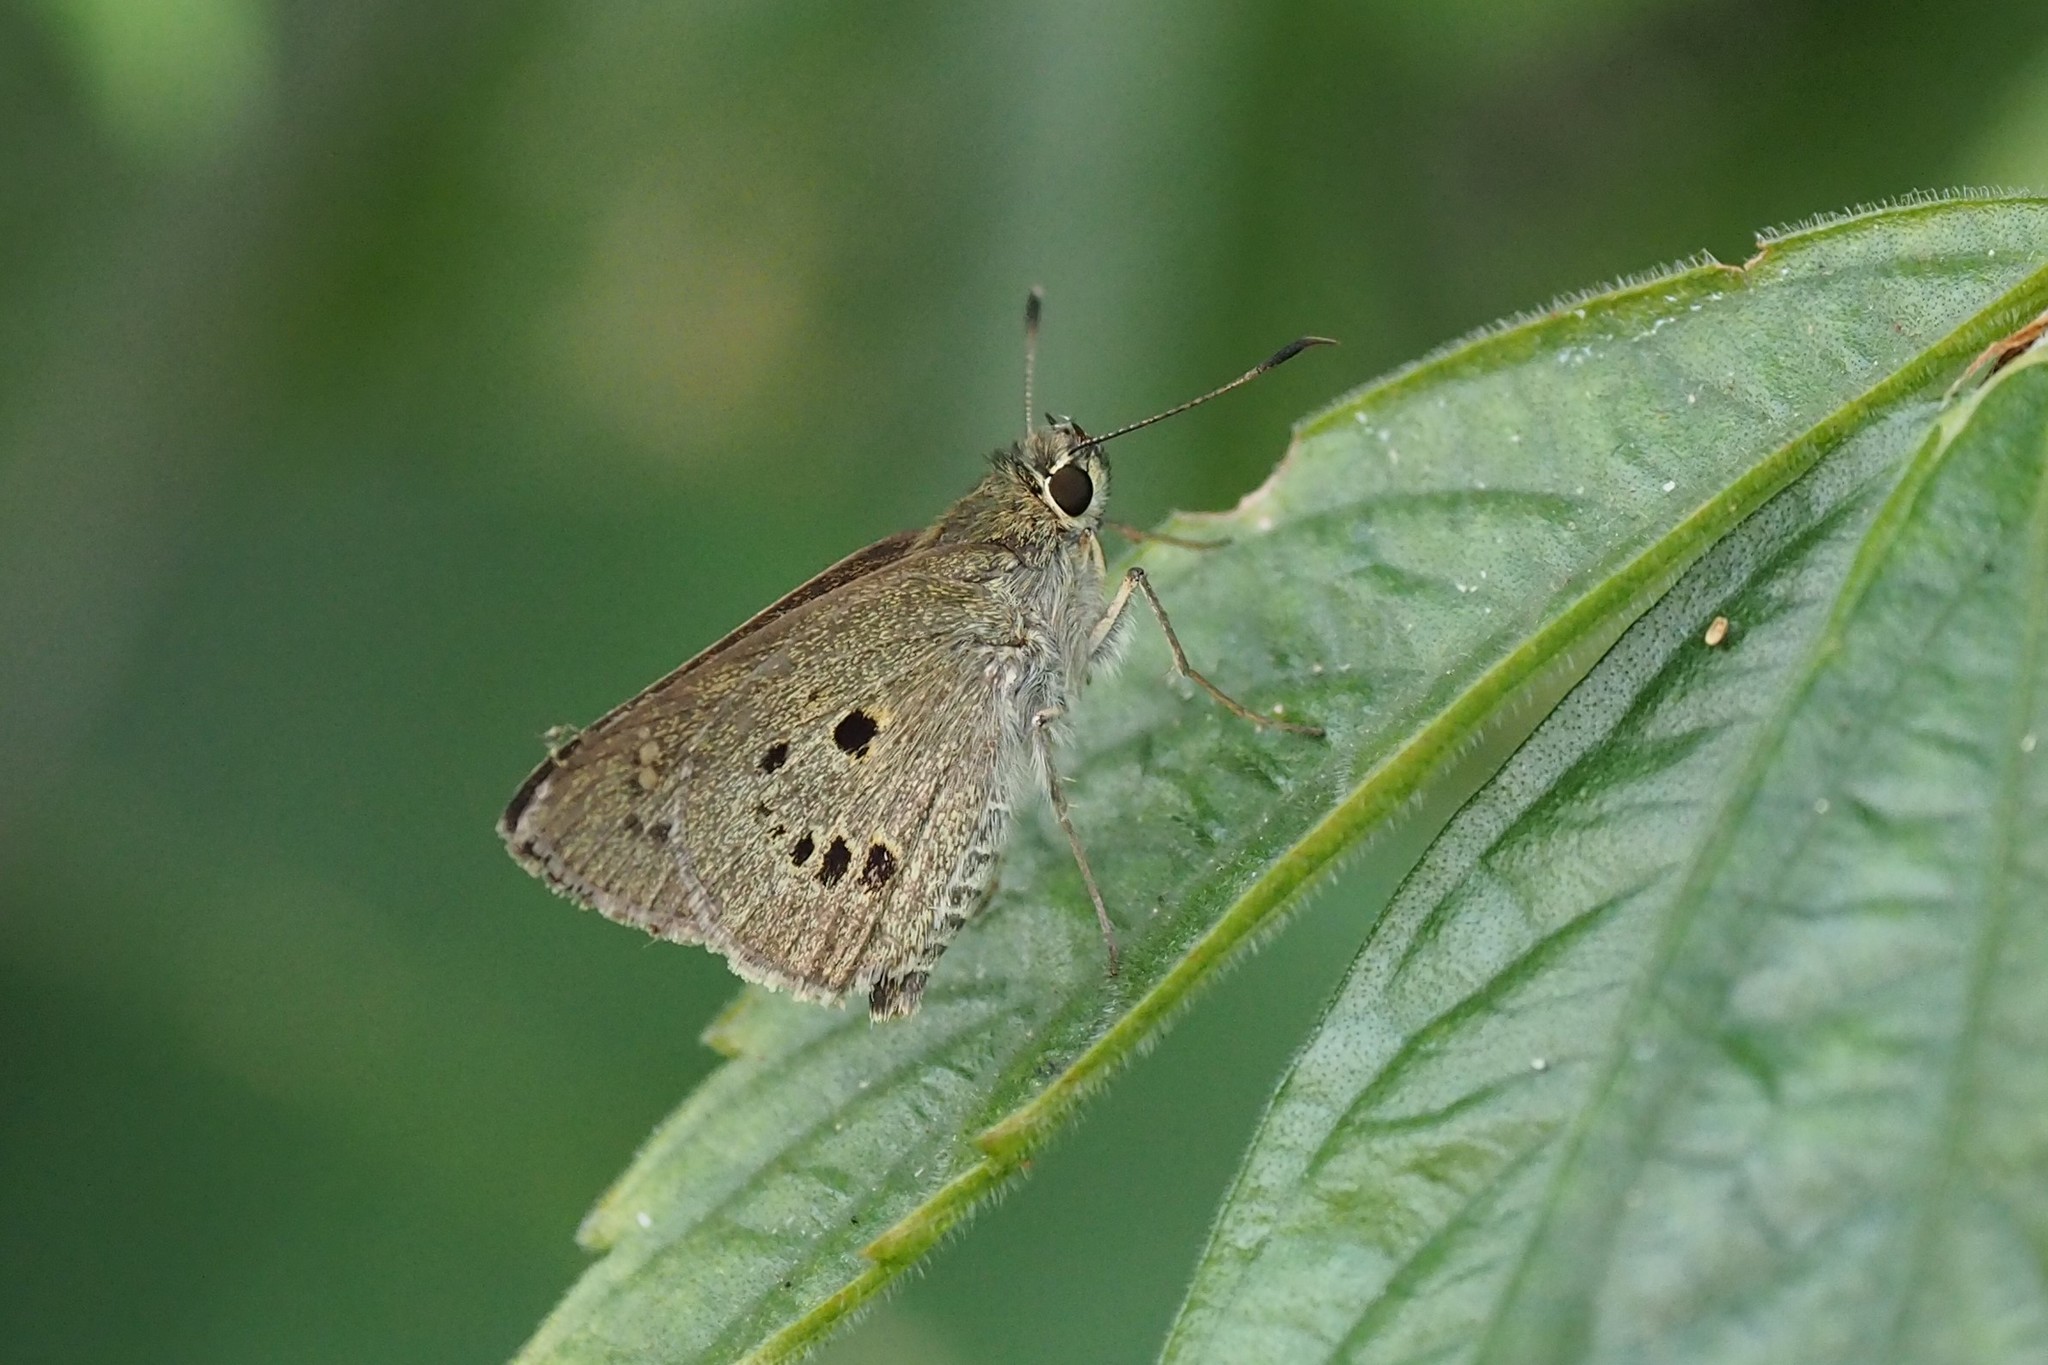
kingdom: Animalia
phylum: Arthropoda
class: Insecta
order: Lepidoptera
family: Hesperiidae
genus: Suastus
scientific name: Suastus gremius
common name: Indian palm bob
